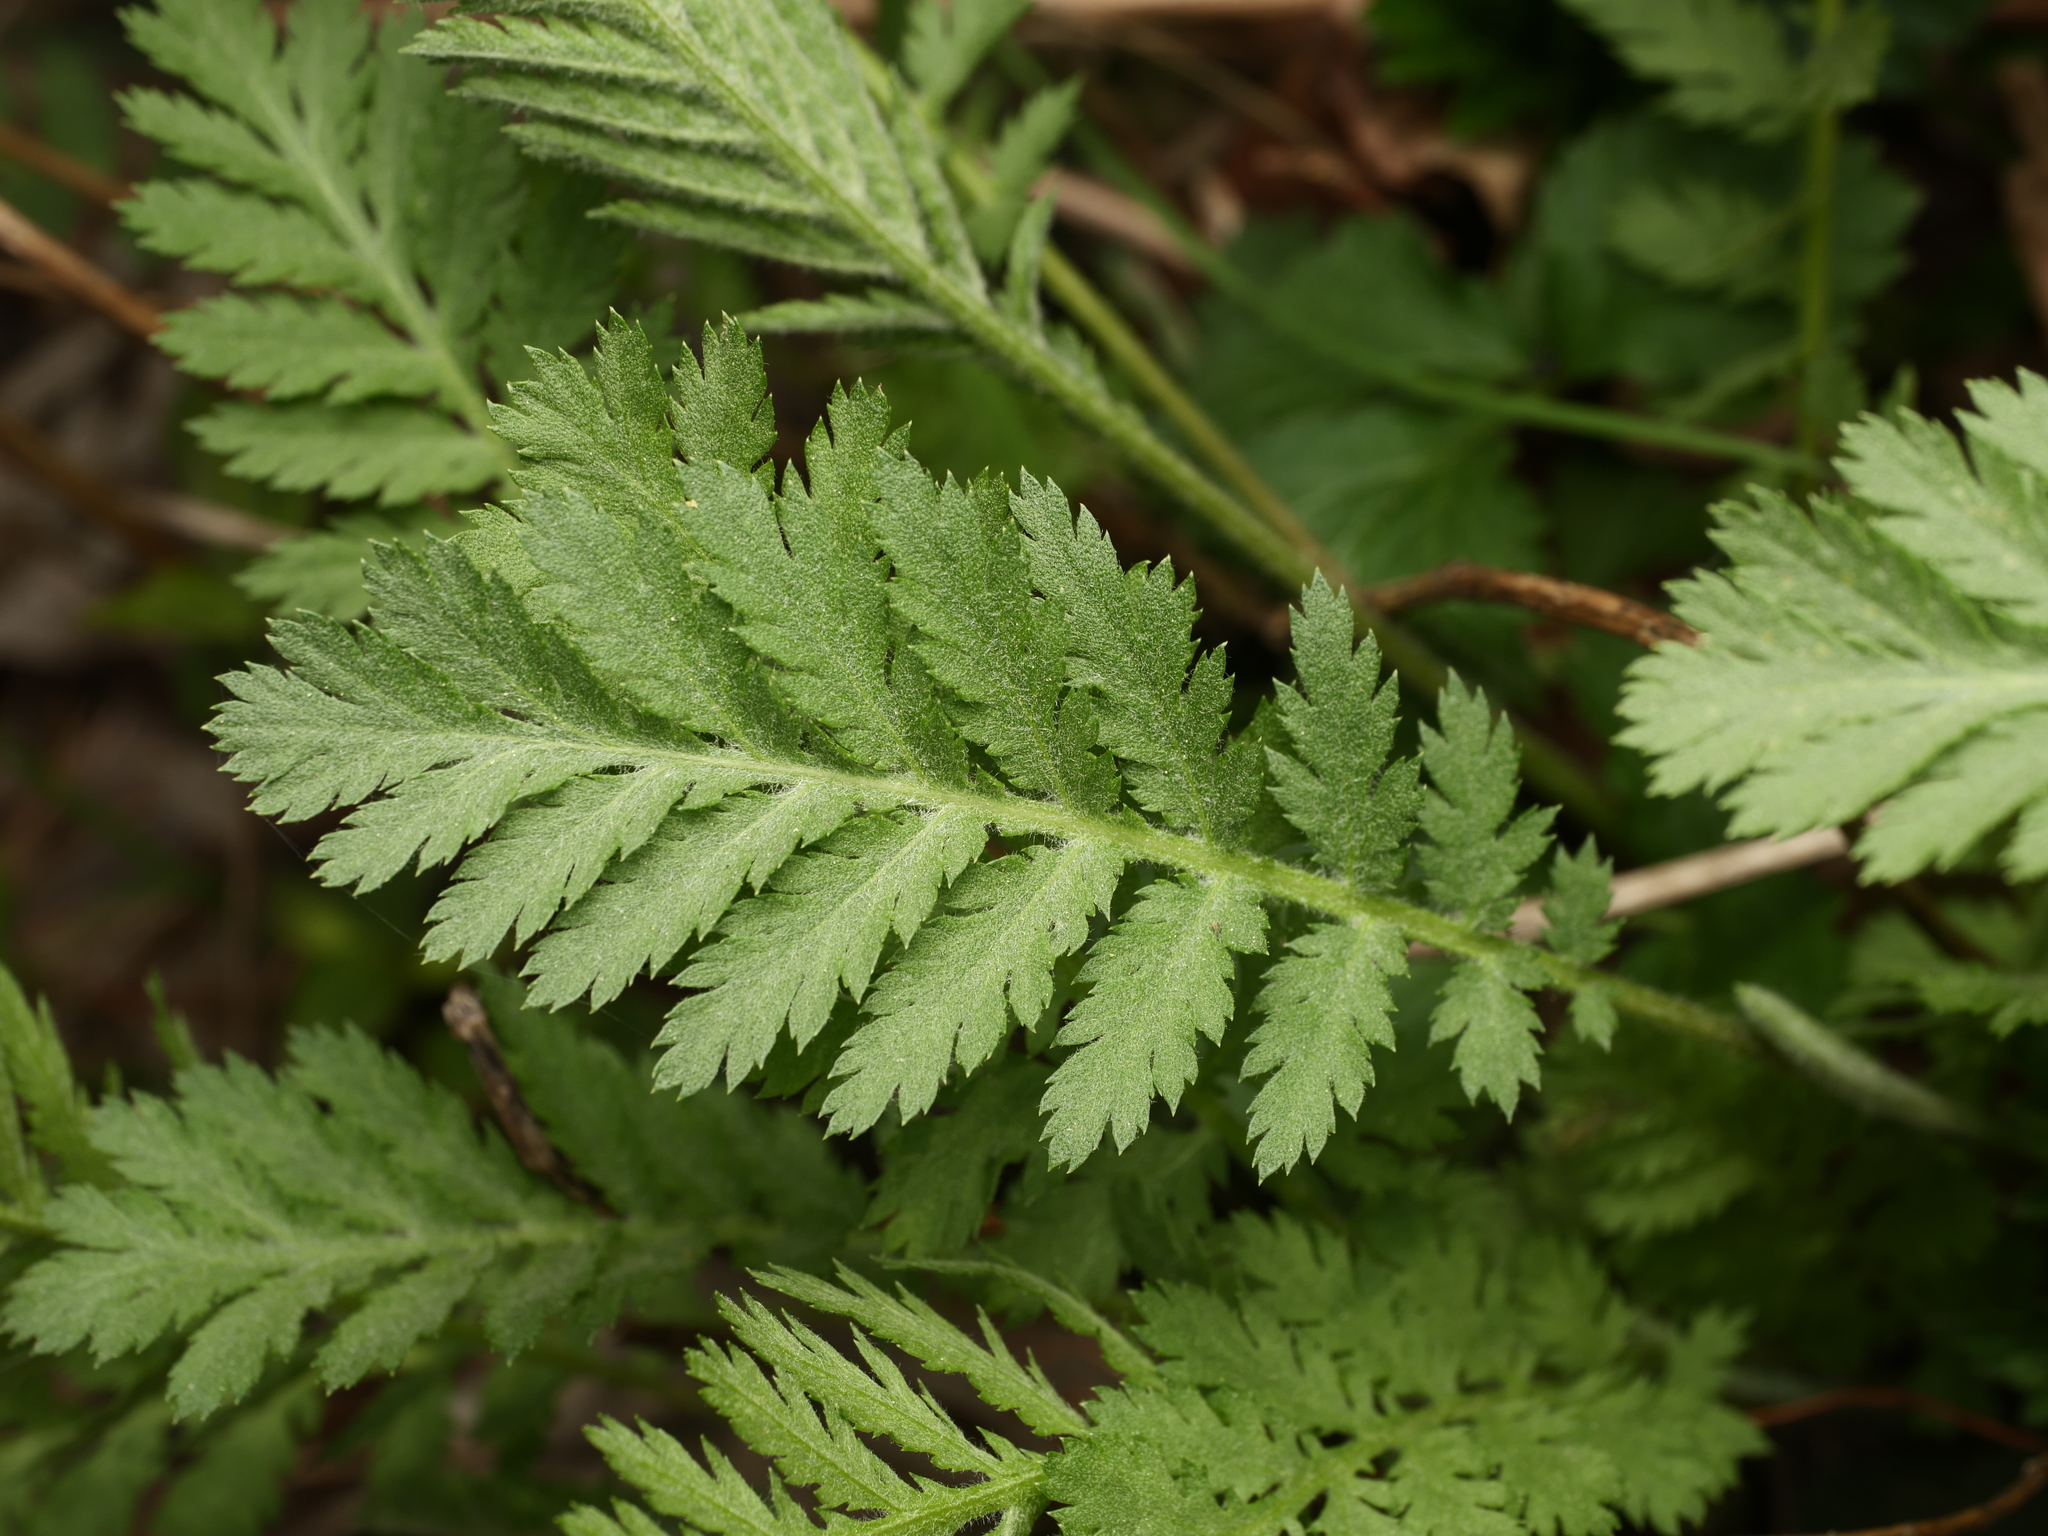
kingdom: Plantae
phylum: Tracheophyta
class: Magnoliopsida
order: Asterales
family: Asteraceae
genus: Tanacetum
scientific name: Tanacetum vulgare
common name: Common tansy
